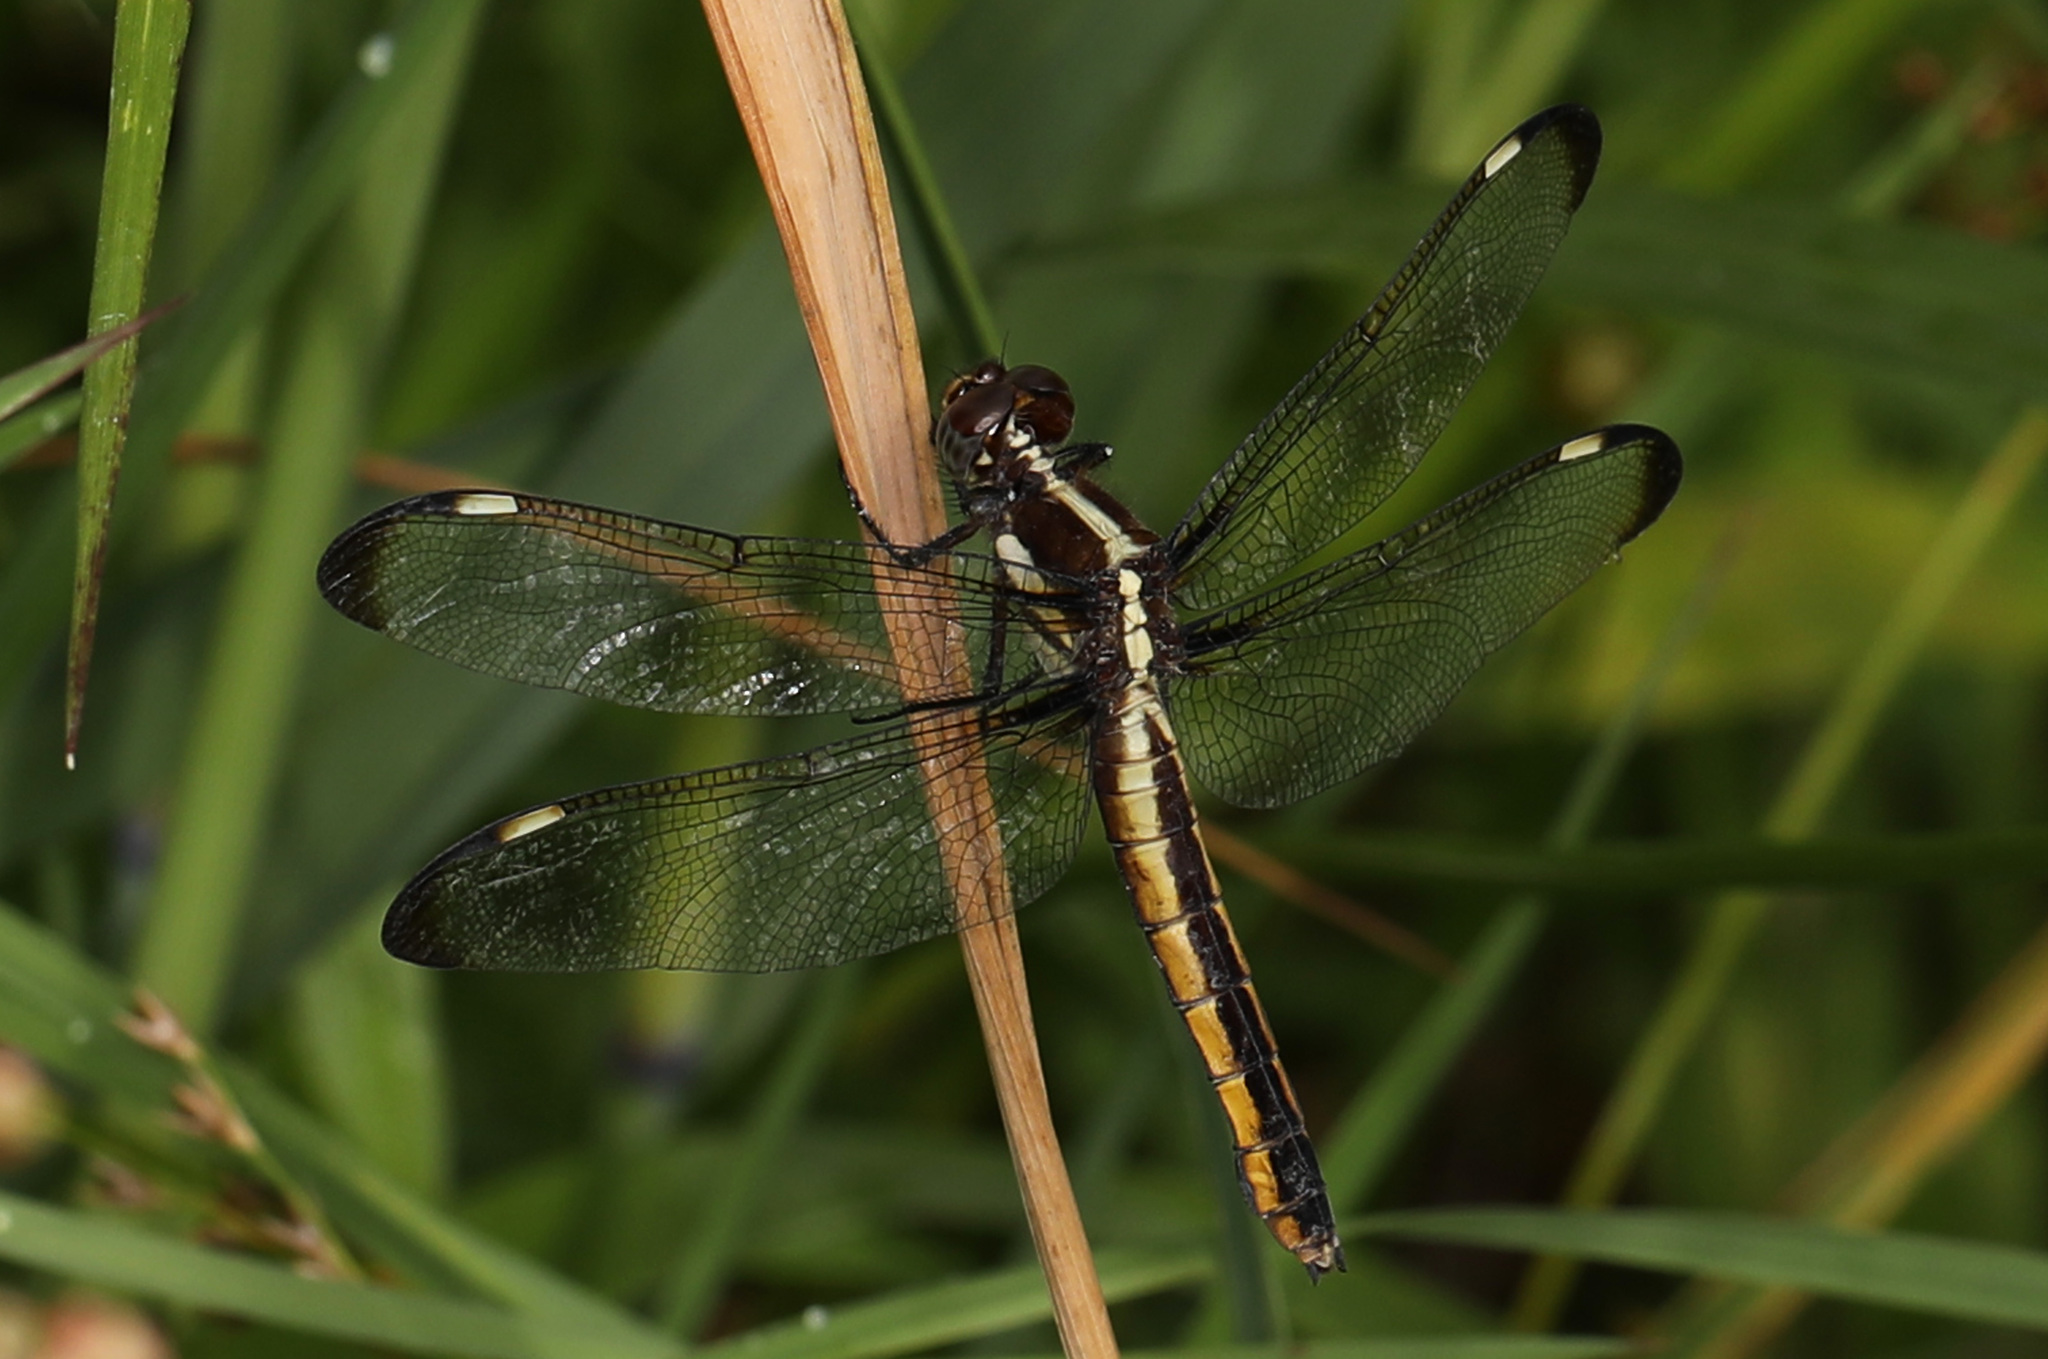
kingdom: Animalia
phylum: Arthropoda
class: Insecta
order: Odonata
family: Libellulidae
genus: Libellula
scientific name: Libellula cyanea
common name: Spangled skimmer
